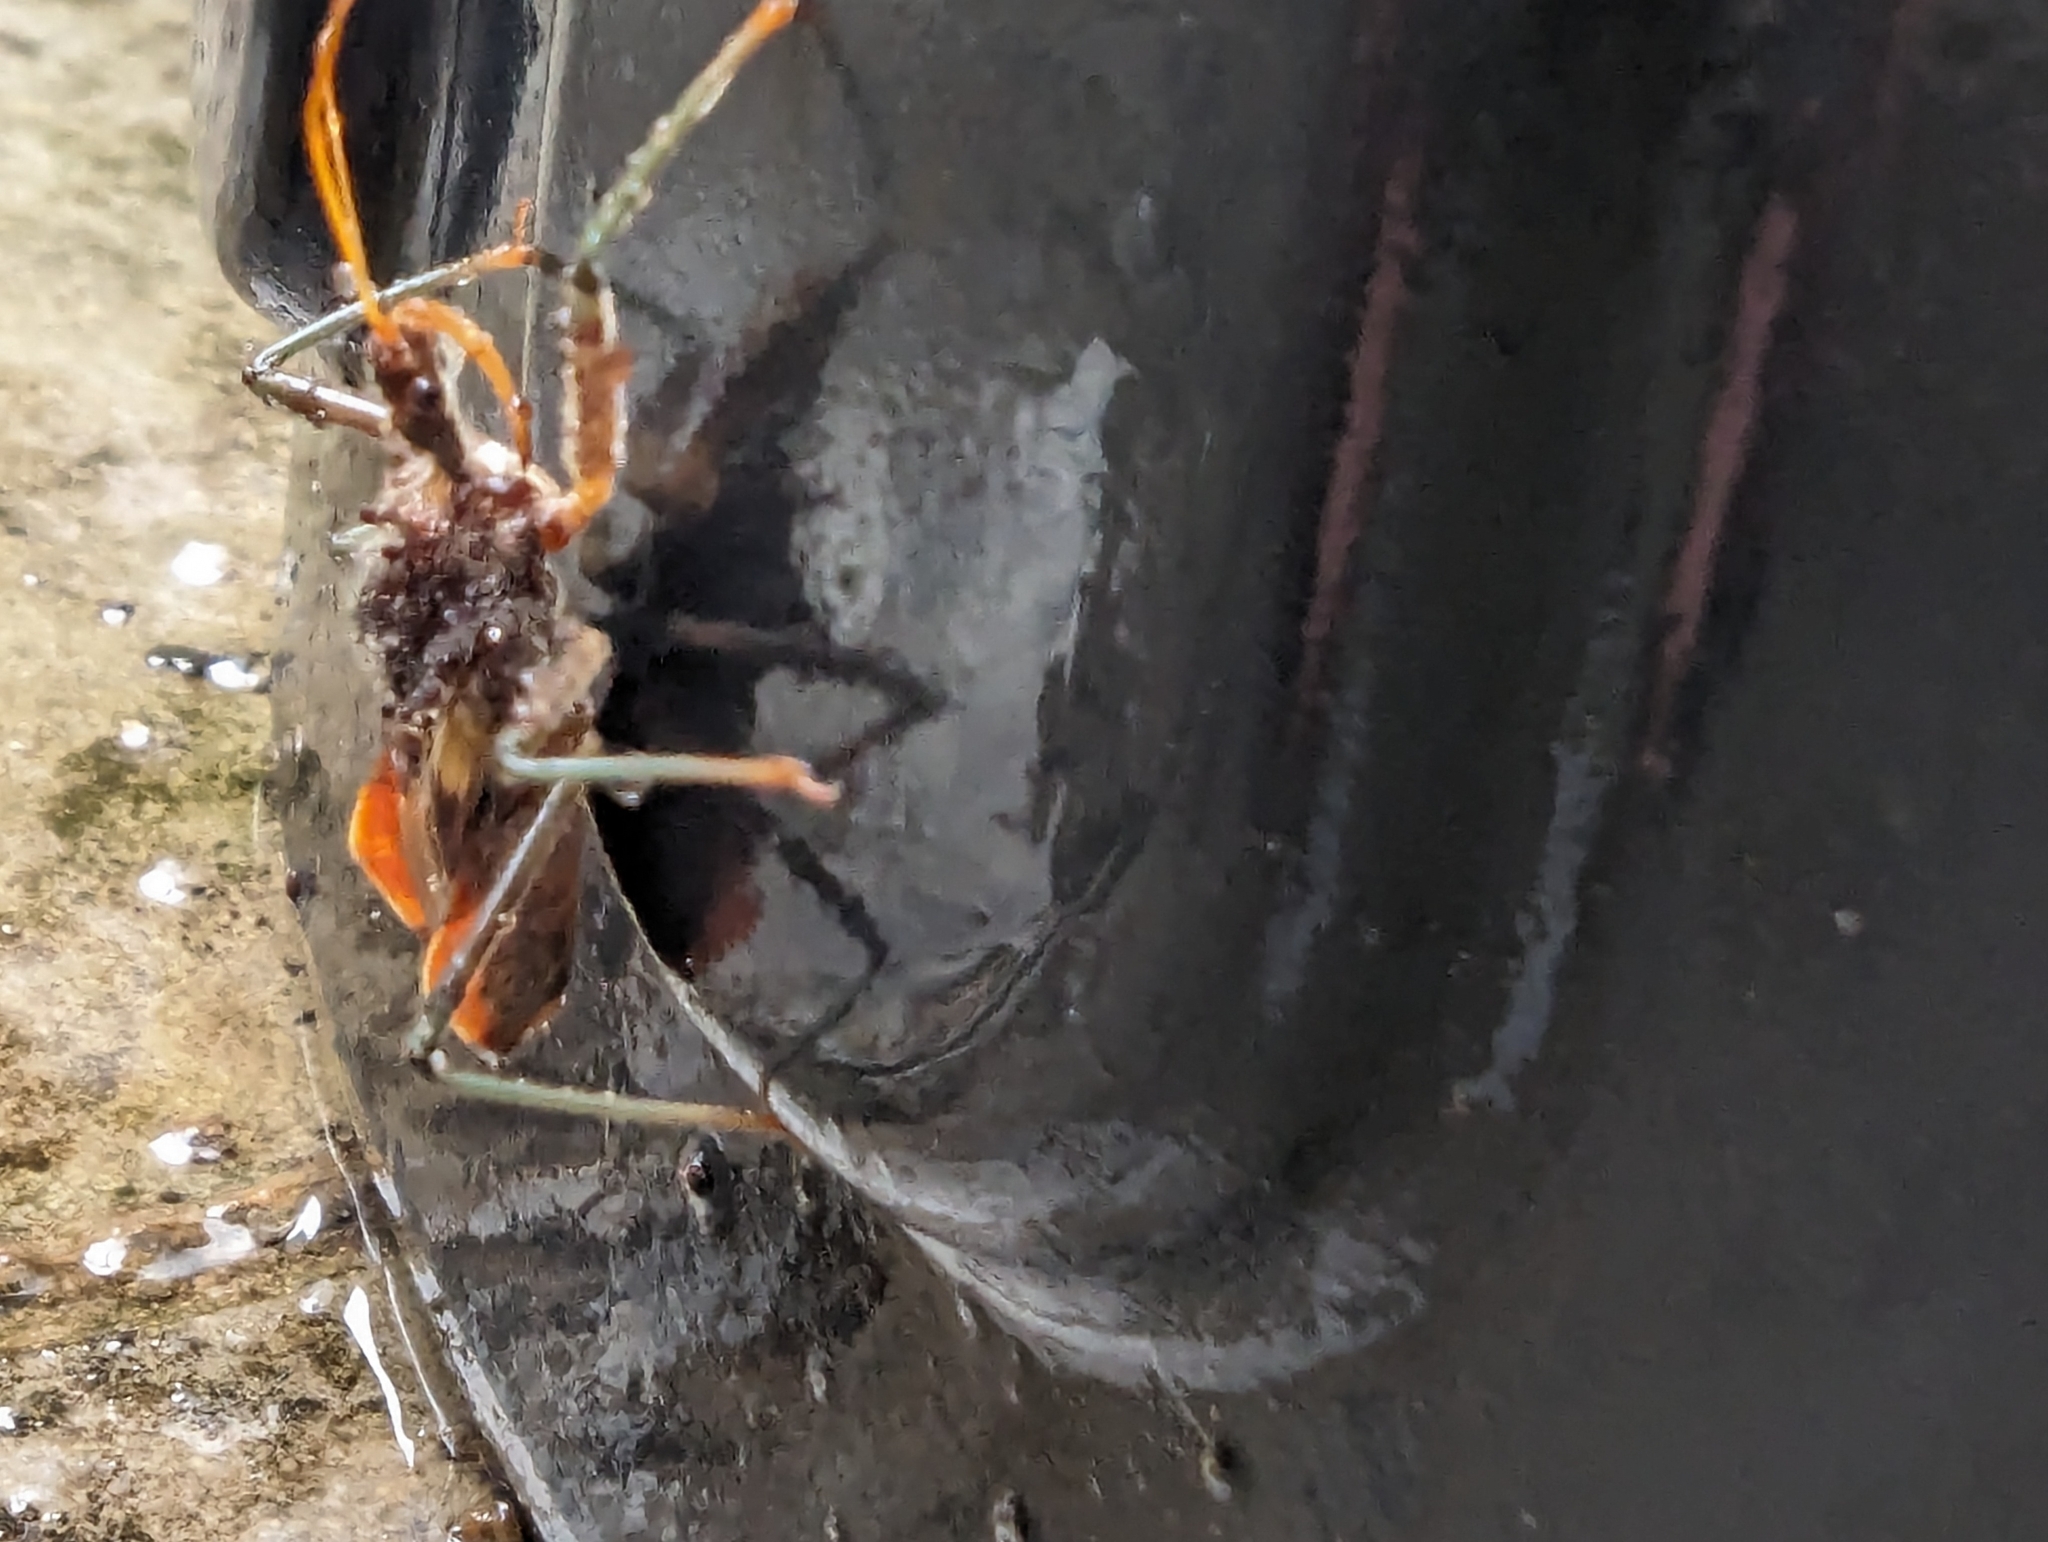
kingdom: Animalia
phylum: Arthropoda
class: Insecta
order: Hemiptera
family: Reduviidae
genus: Pristhesancus
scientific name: Pristhesancus plagipennis
